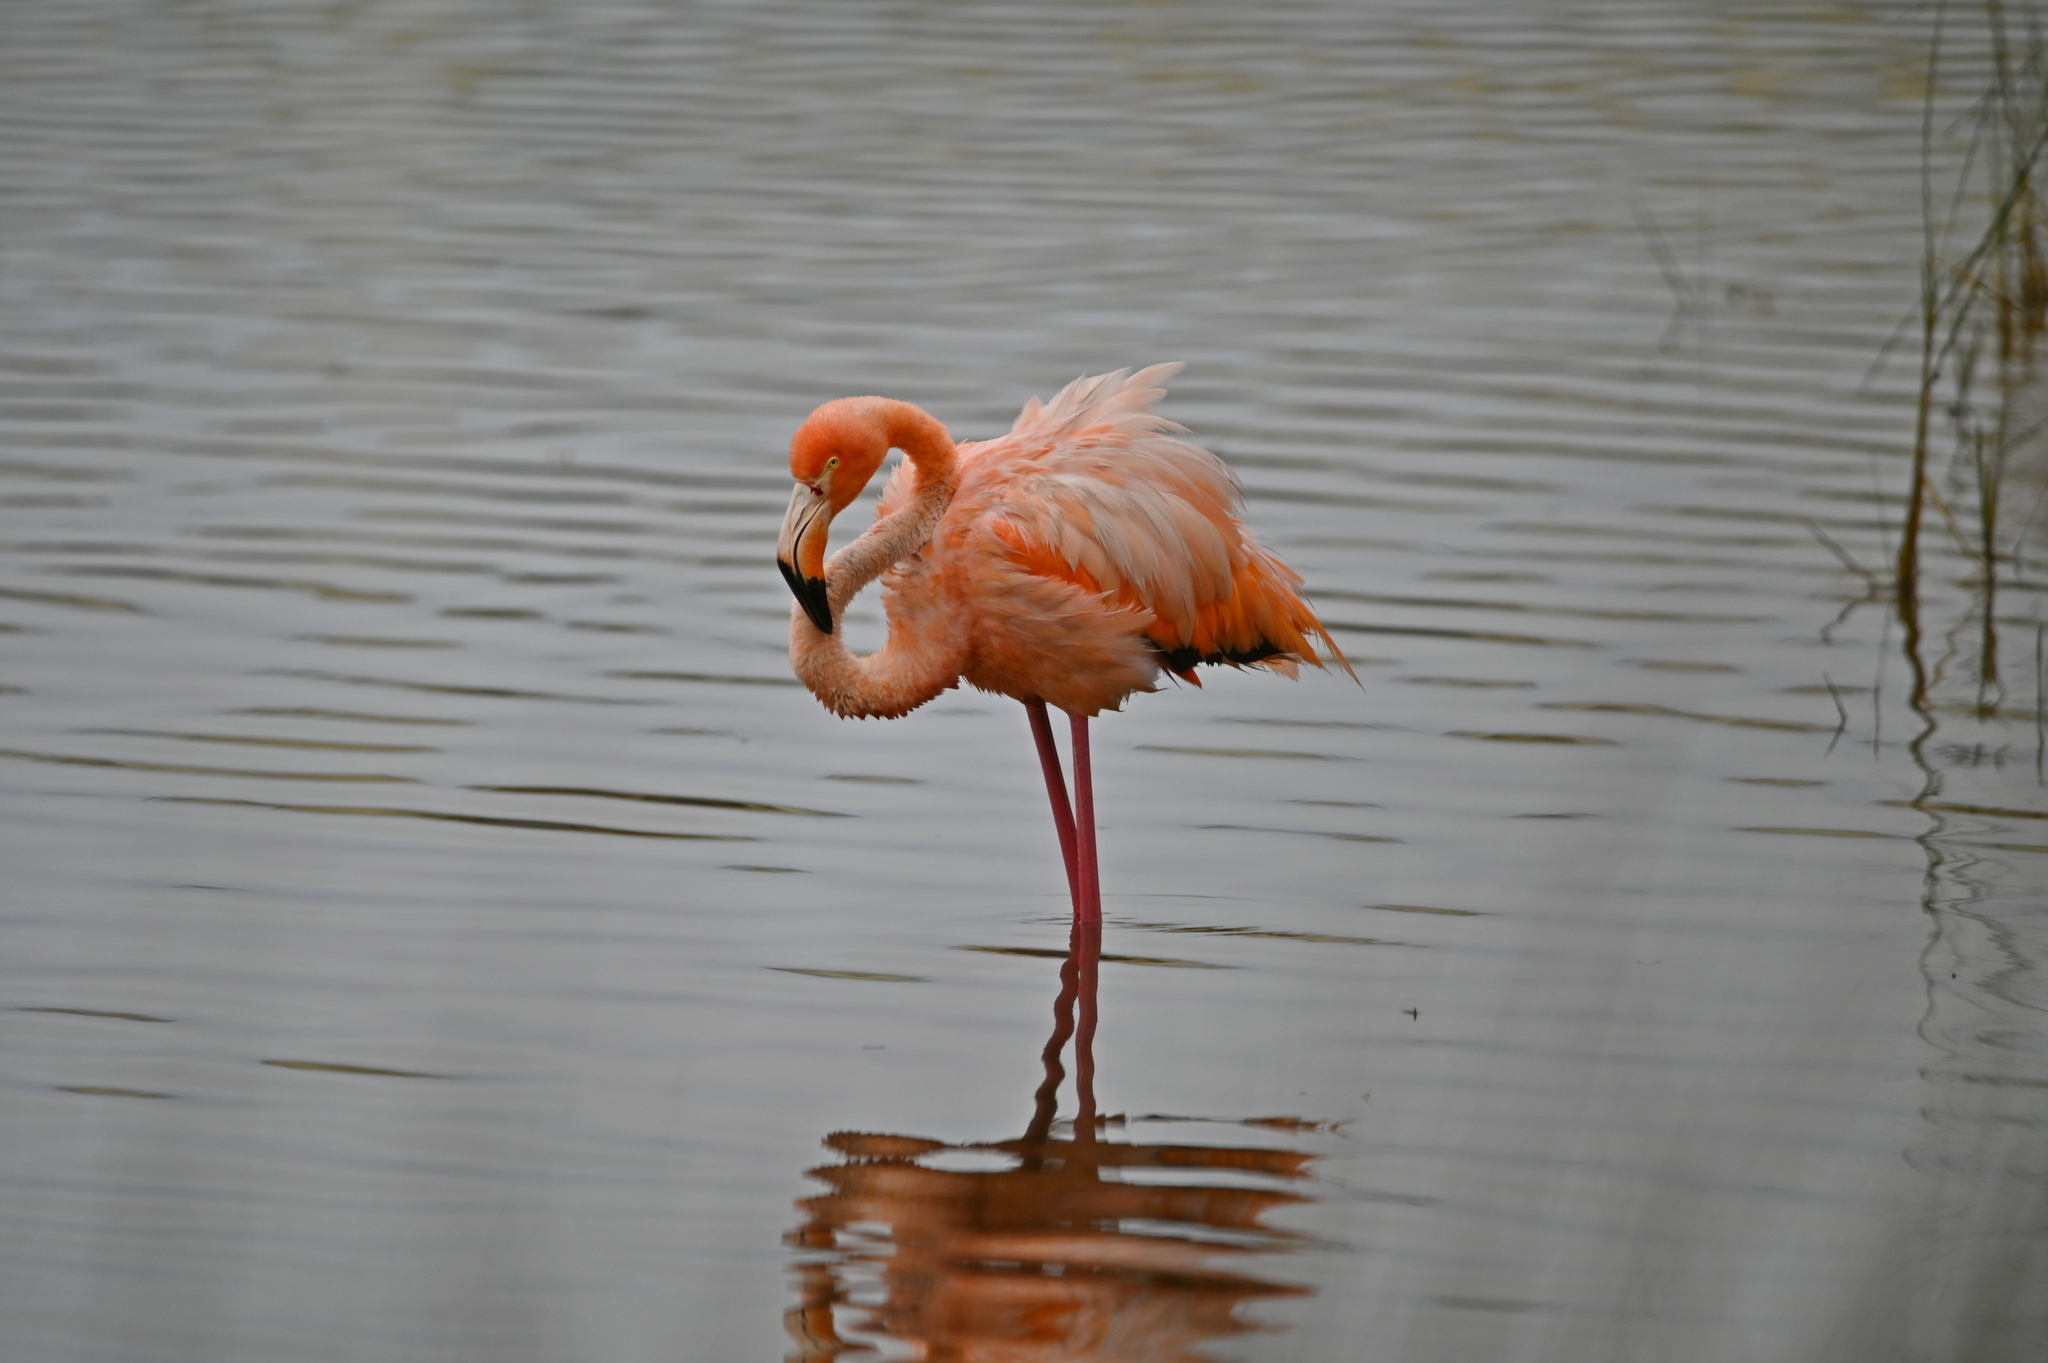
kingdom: Animalia
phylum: Chordata
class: Aves
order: Phoenicopteriformes
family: Phoenicopteridae
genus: Phoenicopterus
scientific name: Phoenicopterus ruber
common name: American flamingo
